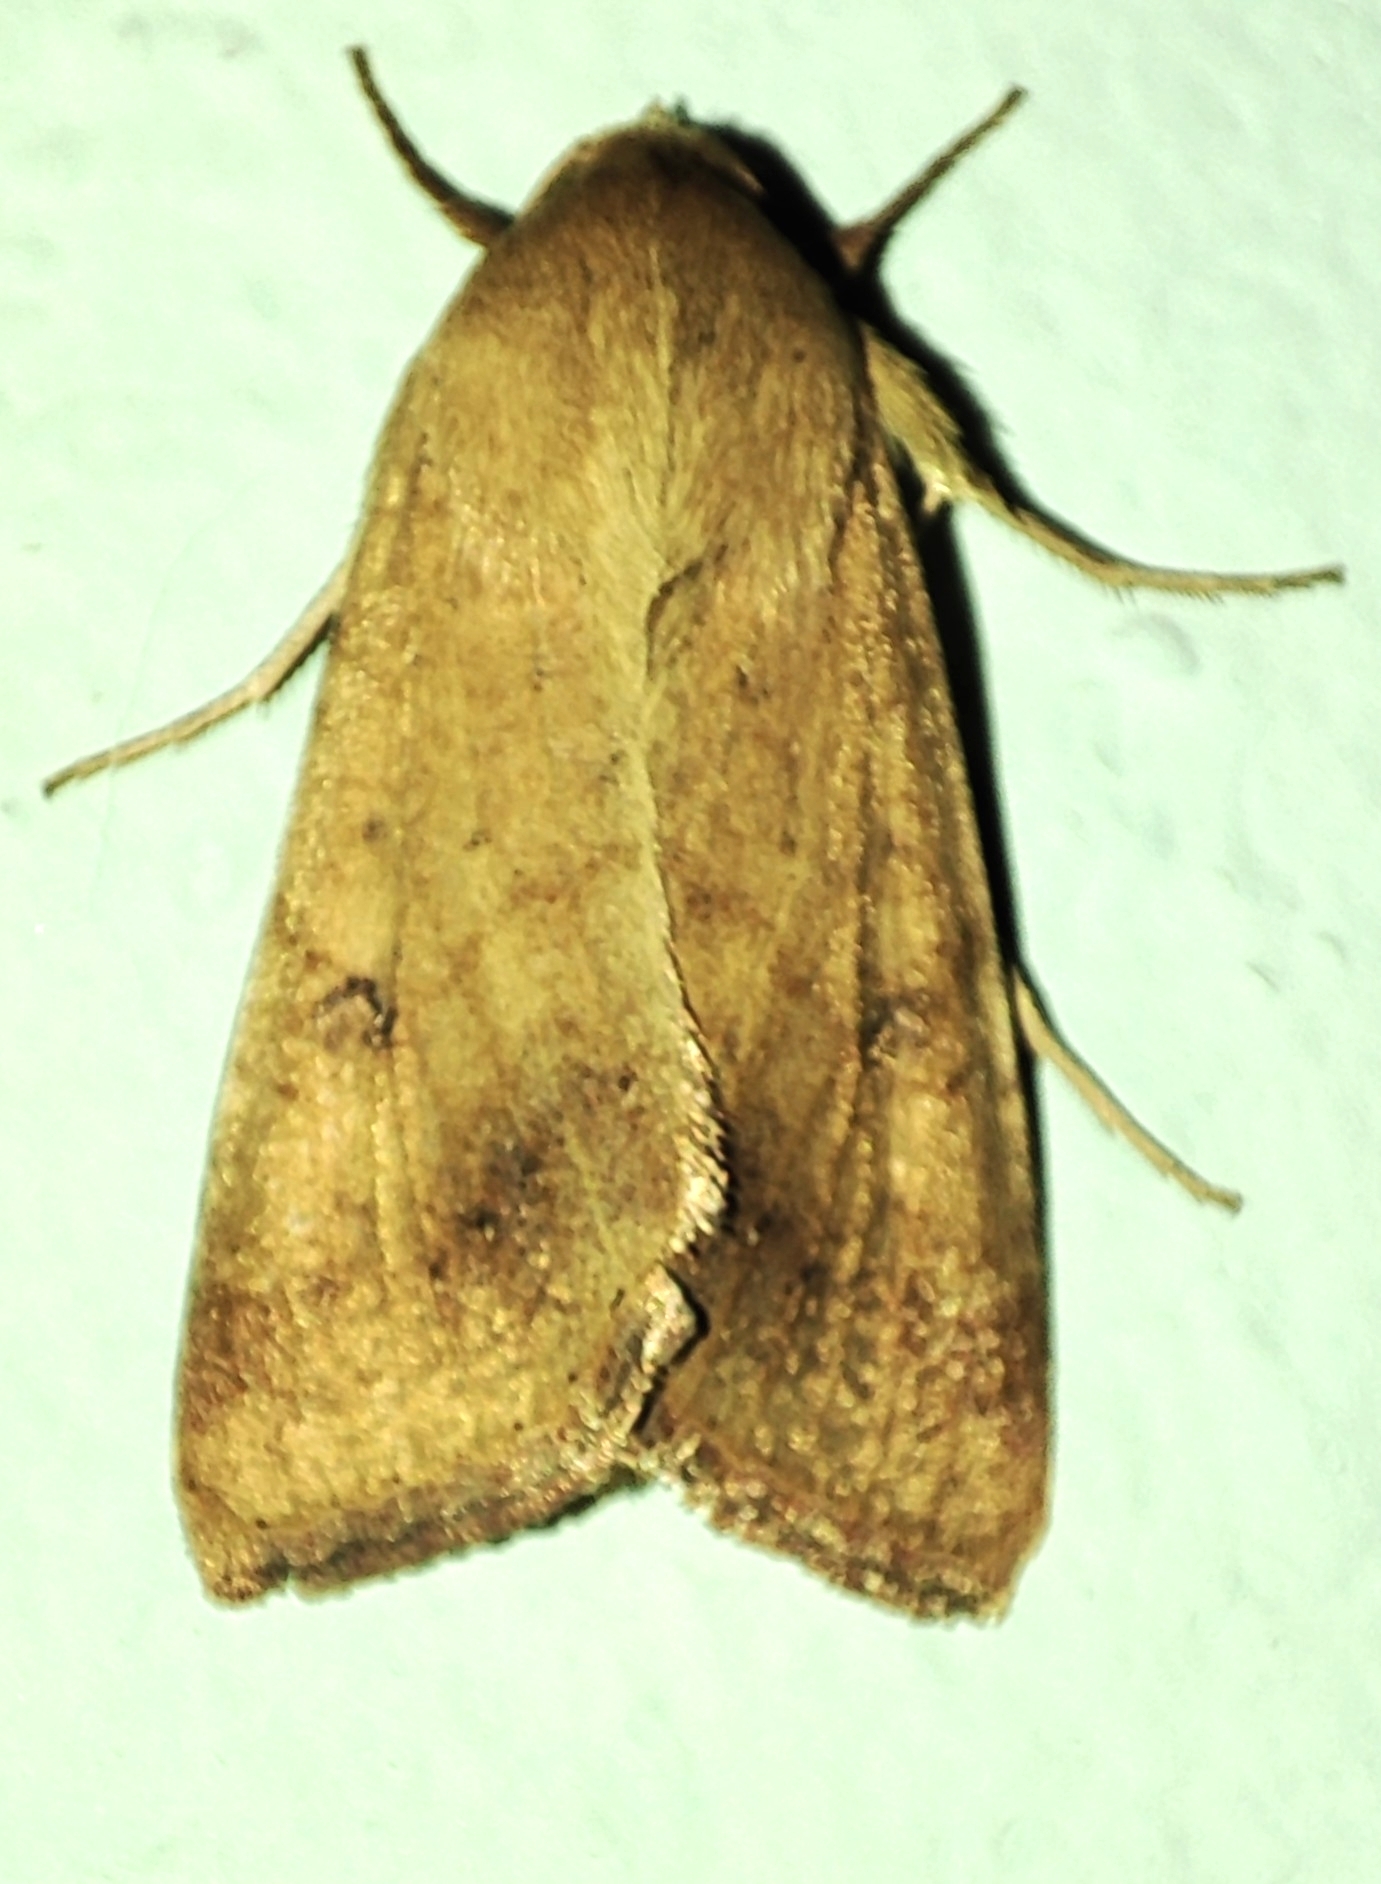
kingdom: Animalia
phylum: Arthropoda
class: Insecta
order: Lepidoptera
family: Noctuidae
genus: Helicoverpa
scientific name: Helicoverpa armigera
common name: Cotton bollworm
